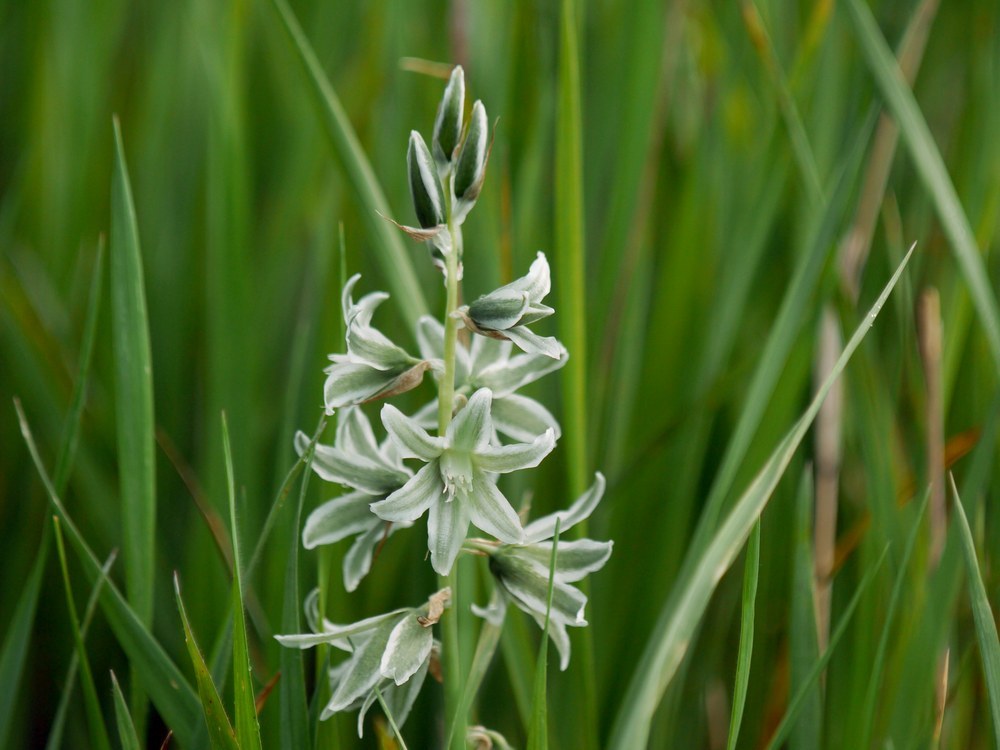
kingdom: Plantae
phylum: Tracheophyta
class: Liliopsida
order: Asparagales
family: Asparagaceae
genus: Ornithogalum
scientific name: Ornithogalum boucheanum
